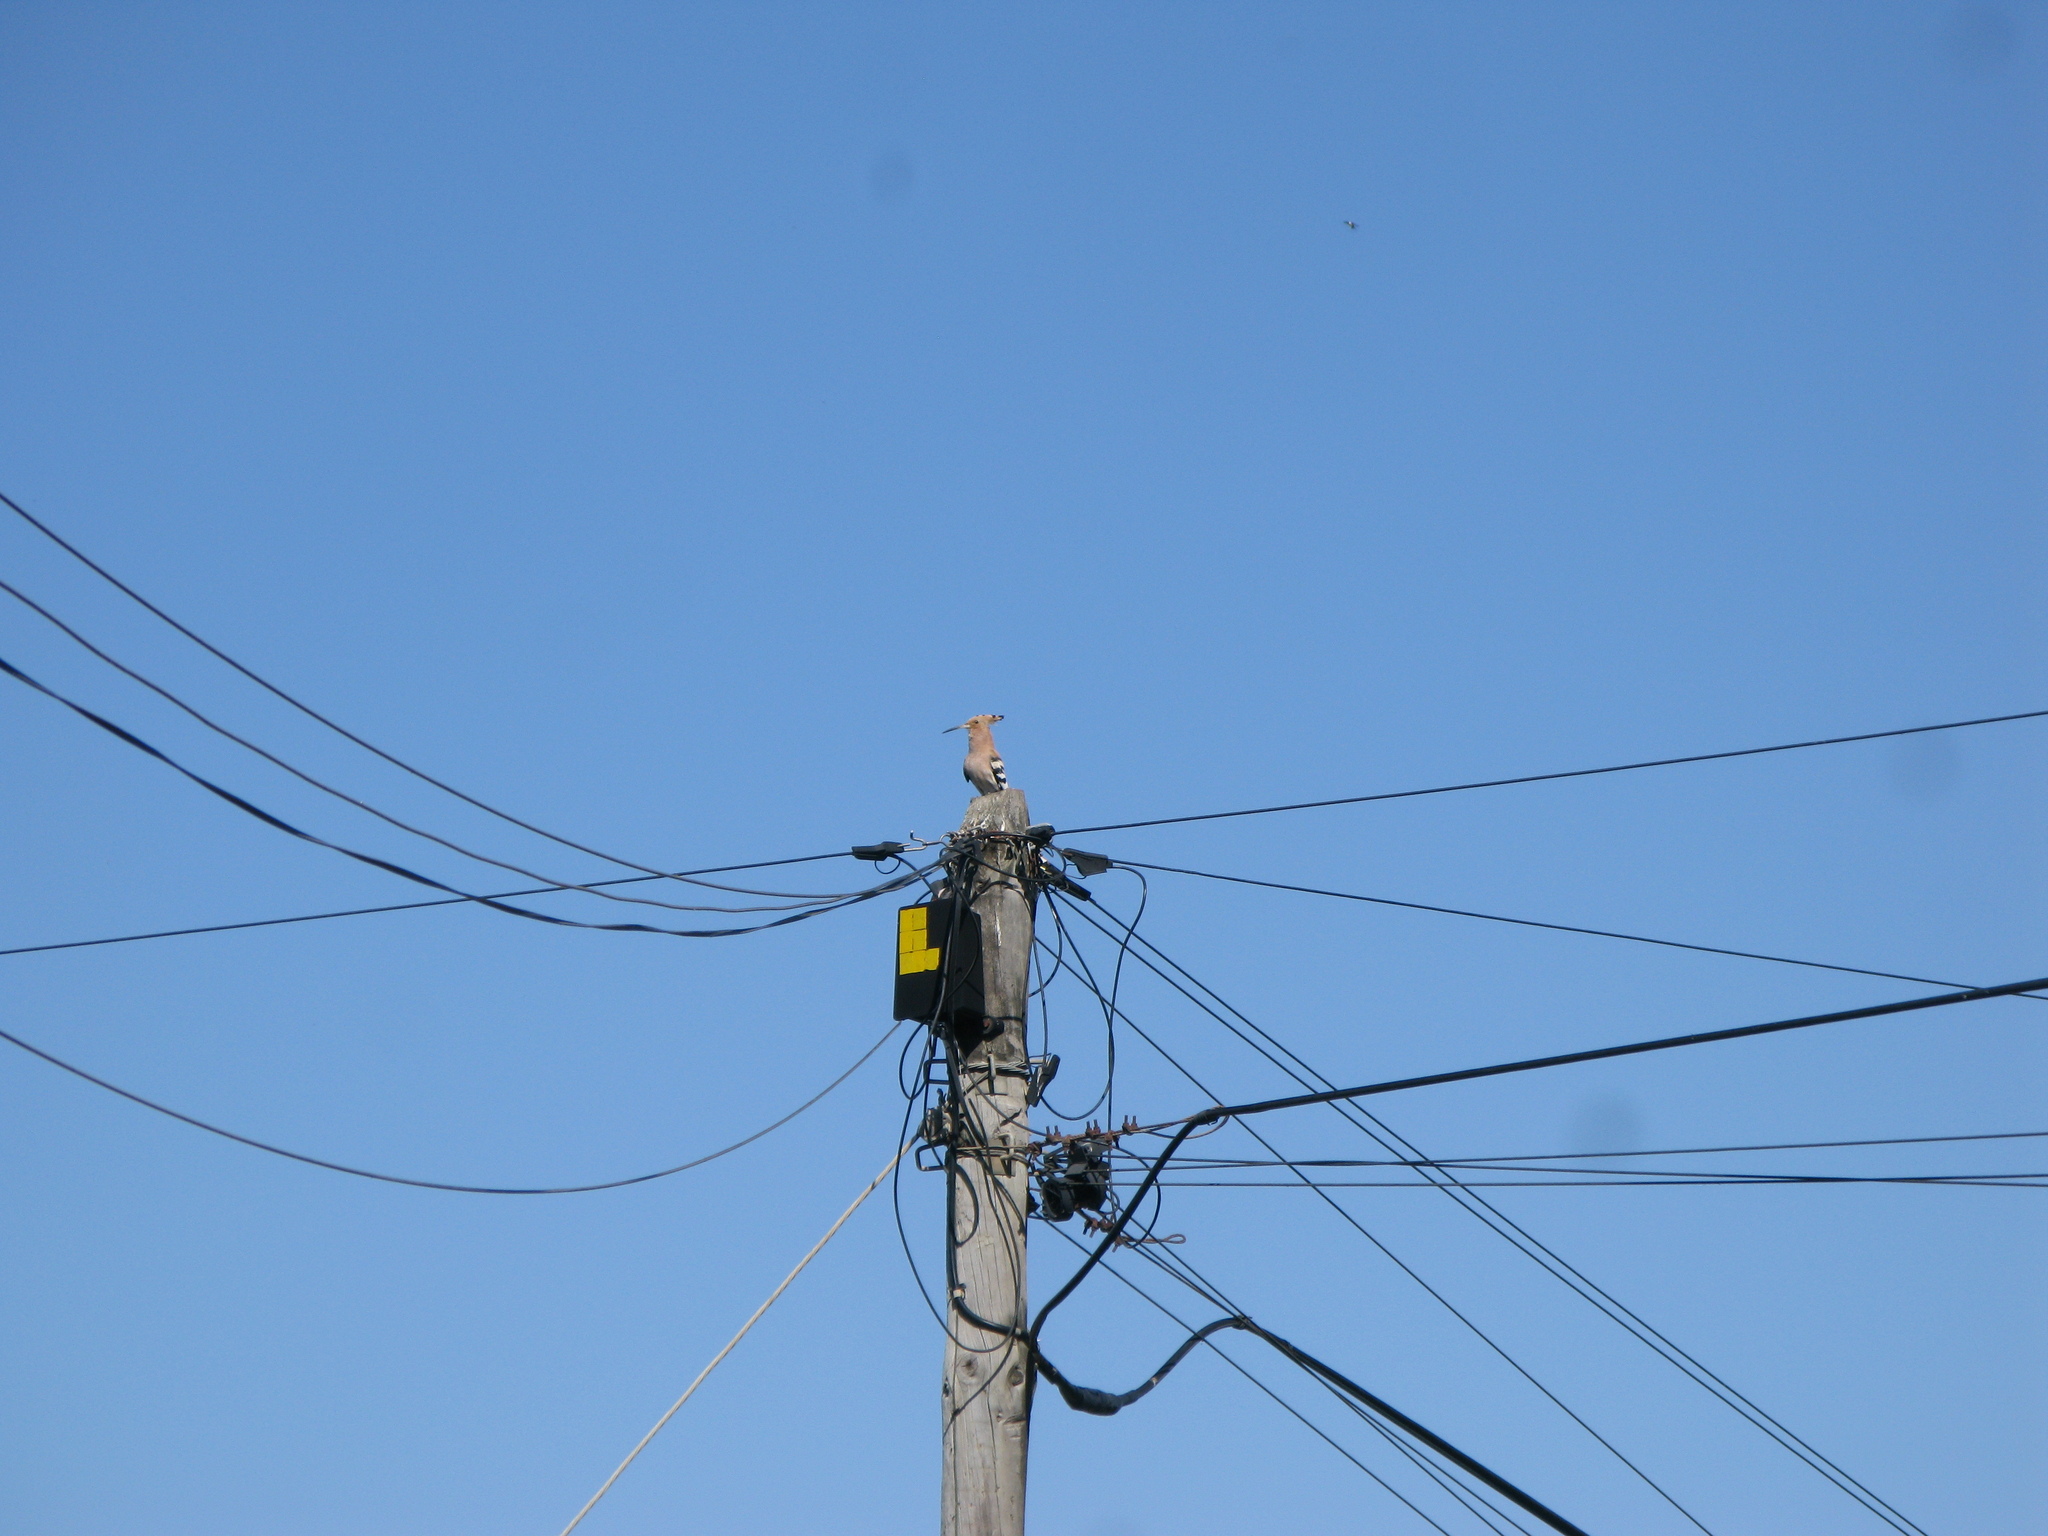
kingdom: Animalia
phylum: Chordata
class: Aves
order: Bucerotiformes
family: Upupidae
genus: Upupa
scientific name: Upupa epops
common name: Eurasian hoopoe
